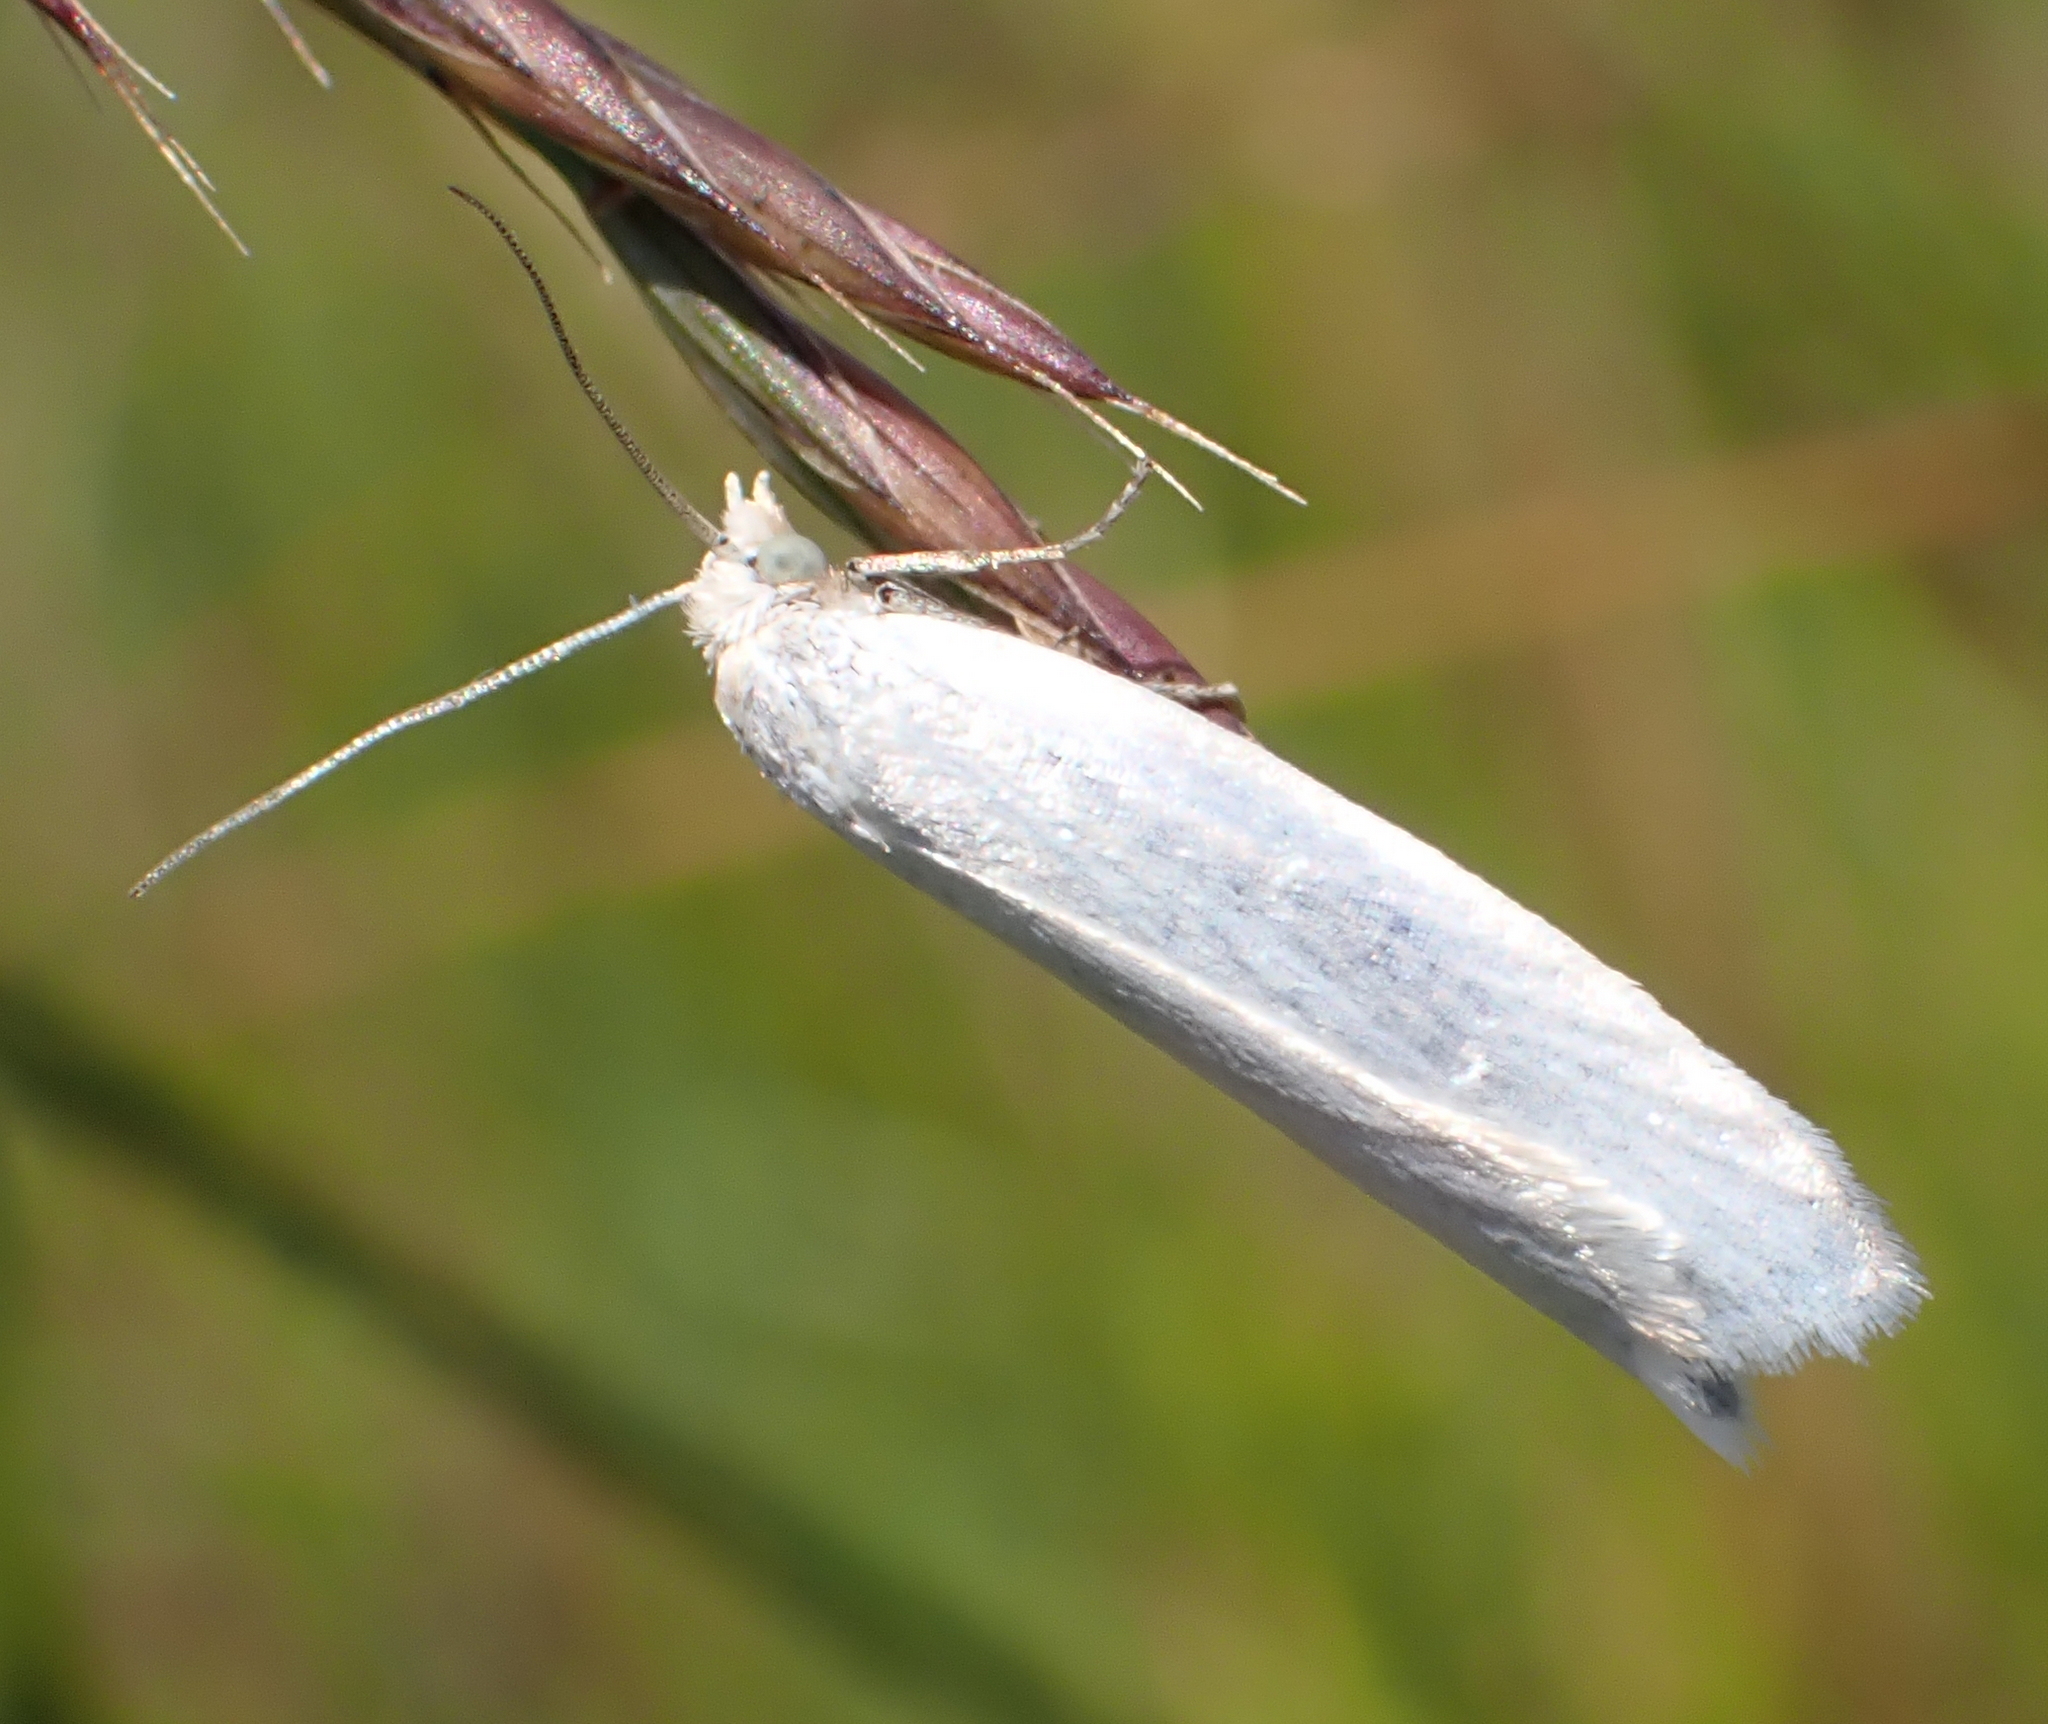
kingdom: Animalia
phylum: Arthropoda
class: Insecta
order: Lepidoptera
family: Tortricidae
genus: Eana
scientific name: Eana argentana
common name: Silver shade
